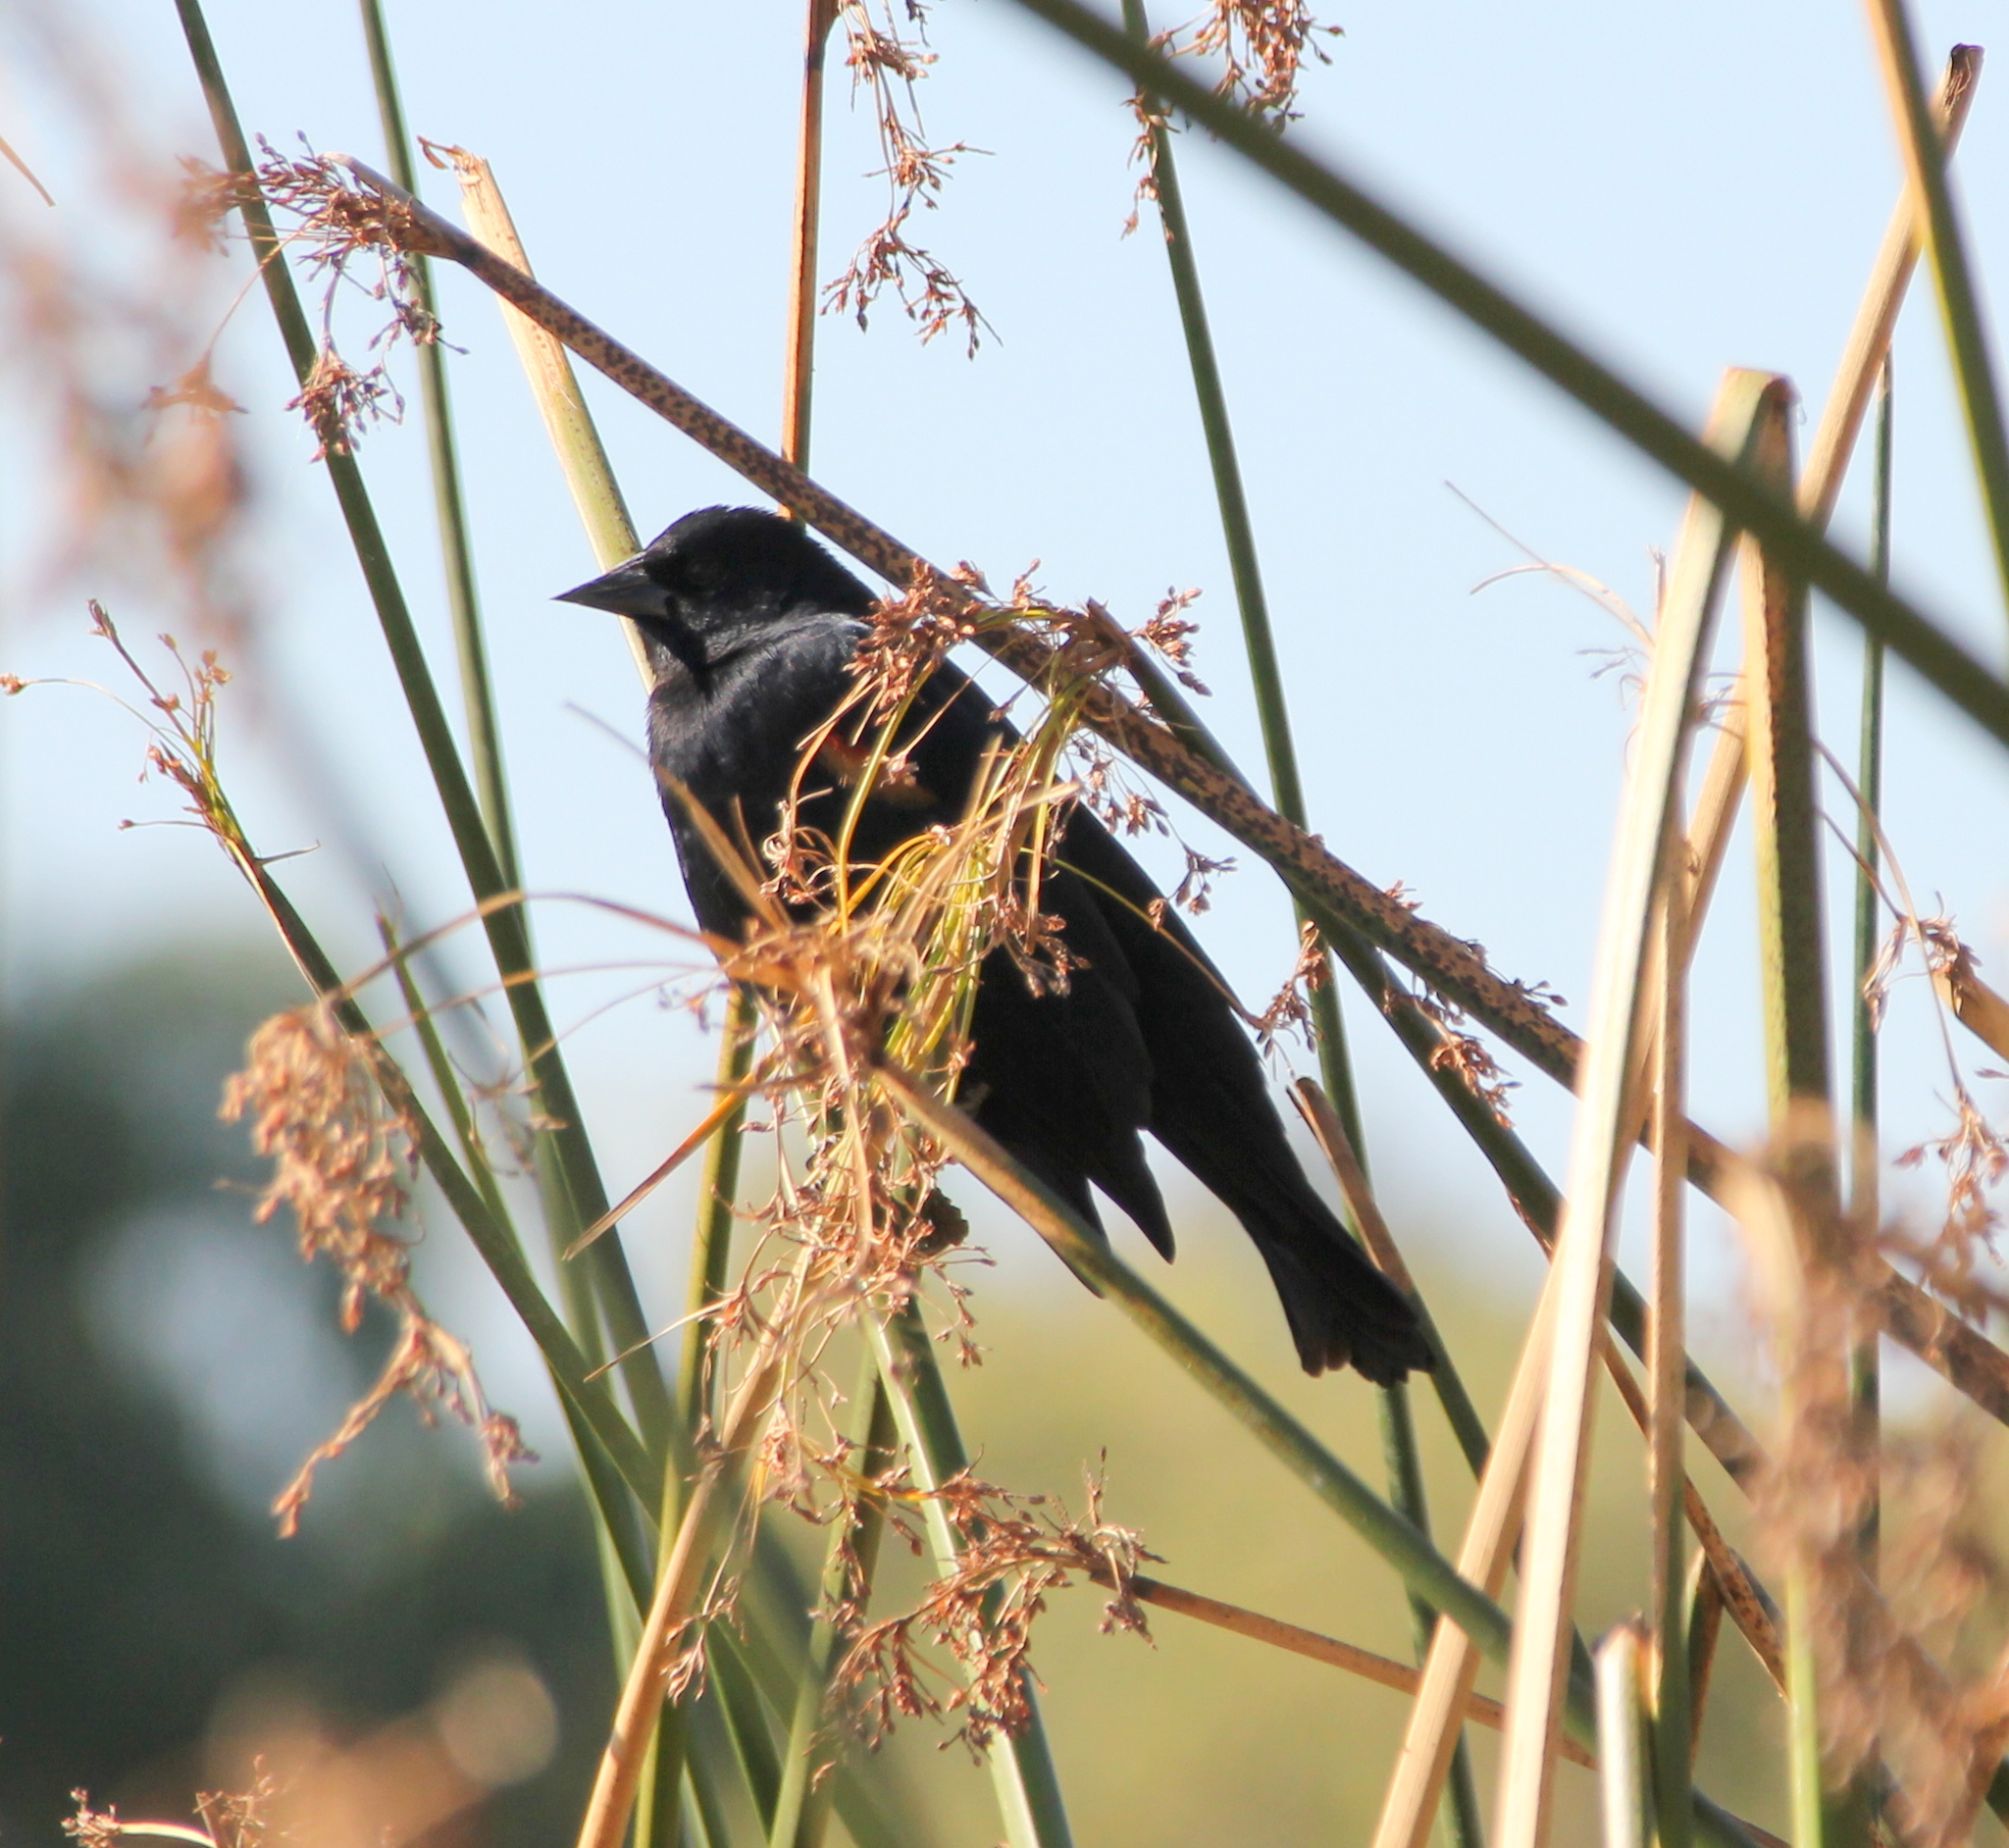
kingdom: Animalia
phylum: Chordata
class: Aves
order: Passeriformes
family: Icteridae
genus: Agelaius
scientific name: Agelaius phoeniceus
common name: Red-winged blackbird
